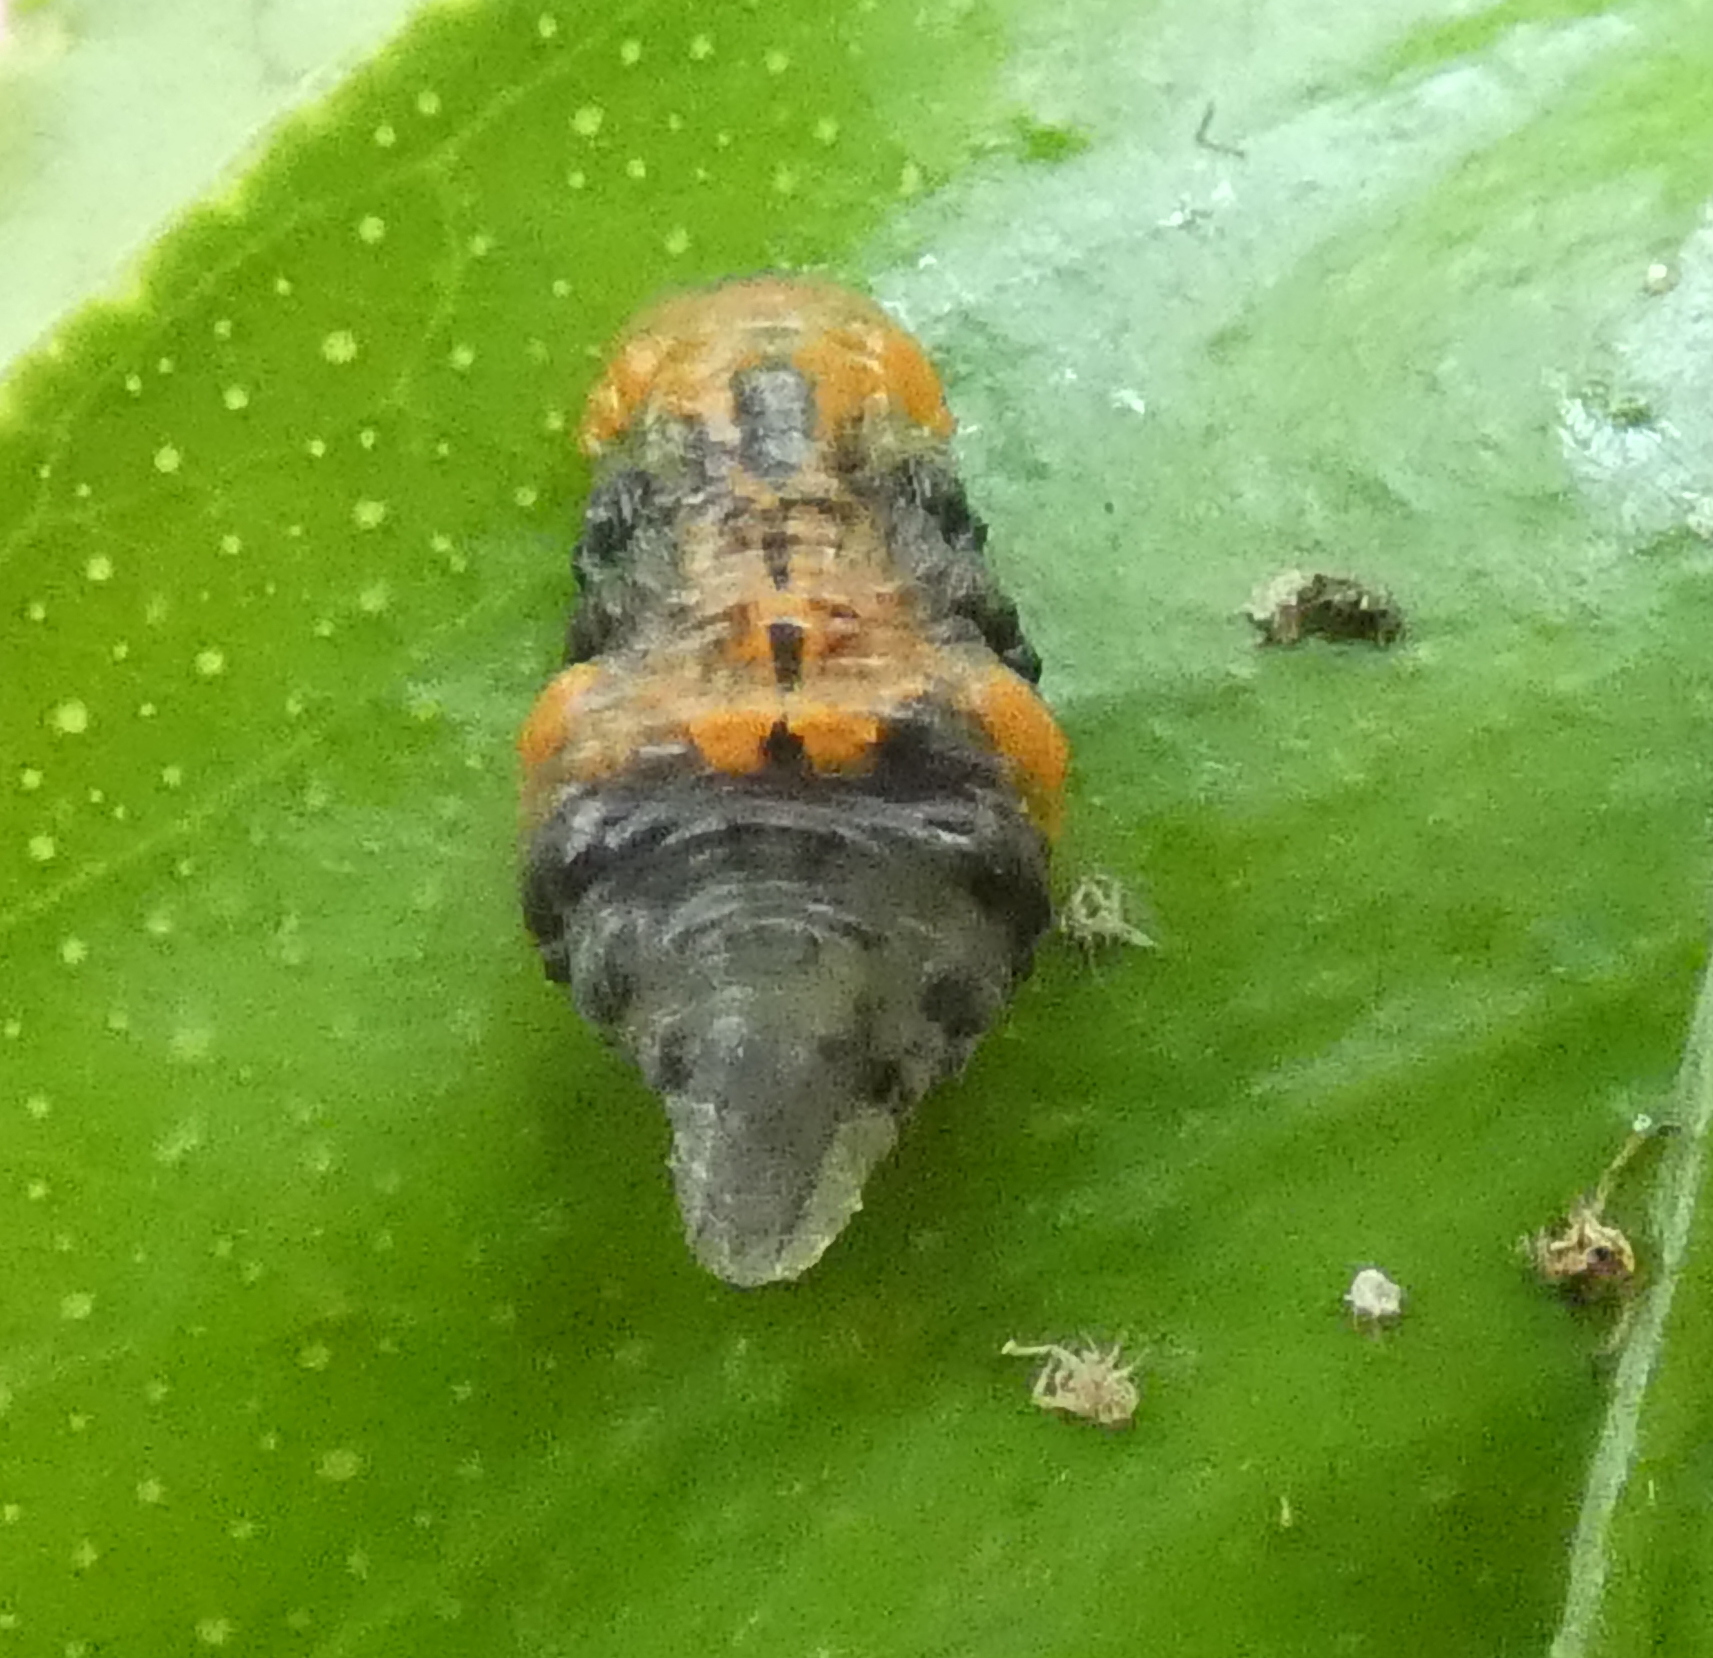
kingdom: Animalia
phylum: Arthropoda
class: Insecta
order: Diptera
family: Syrphidae
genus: Ocyptamus
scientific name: Ocyptamus gastrostactus
